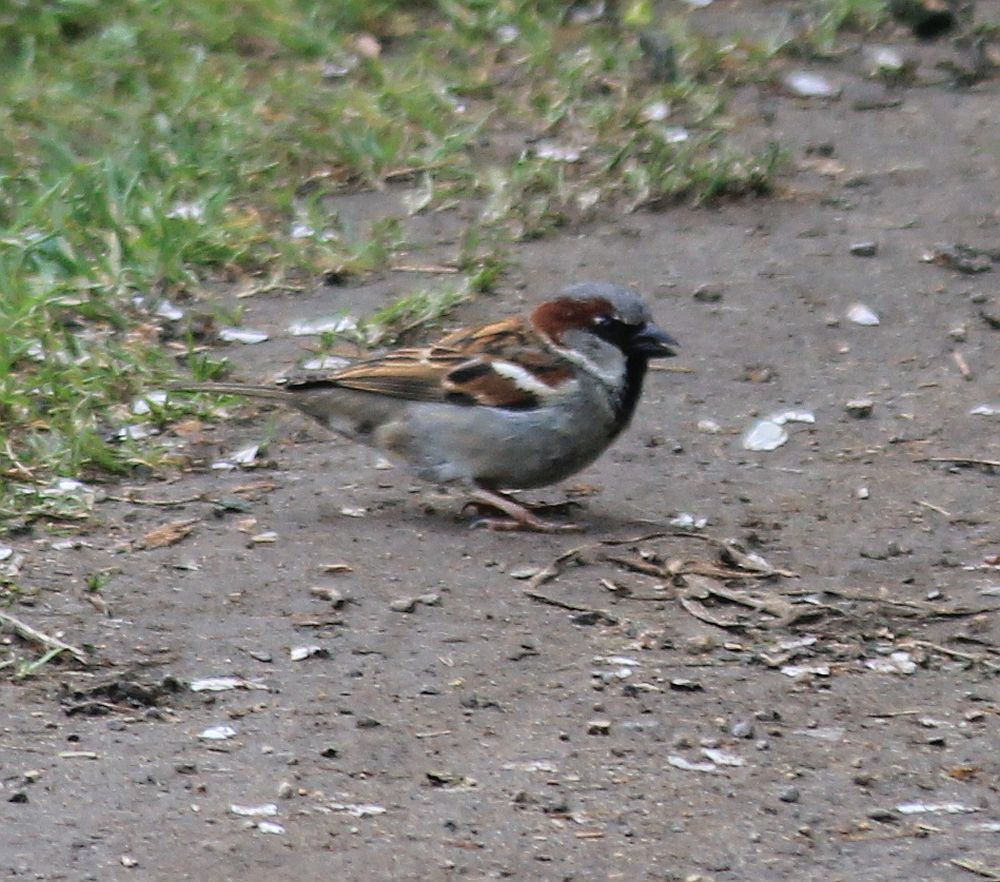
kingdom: Animalia
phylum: Chordata
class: Aves
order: Passeriformes
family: Passeridae
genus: Passer
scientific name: Passer domesticus
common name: House sparrow
